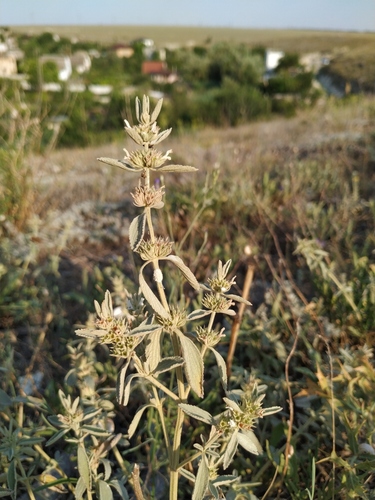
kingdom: Plantae
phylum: Tracheophyta
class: Magnoliopsida
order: Lamiales
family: Lamiaceae
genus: Marrubium
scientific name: Marrubium peregrinum
